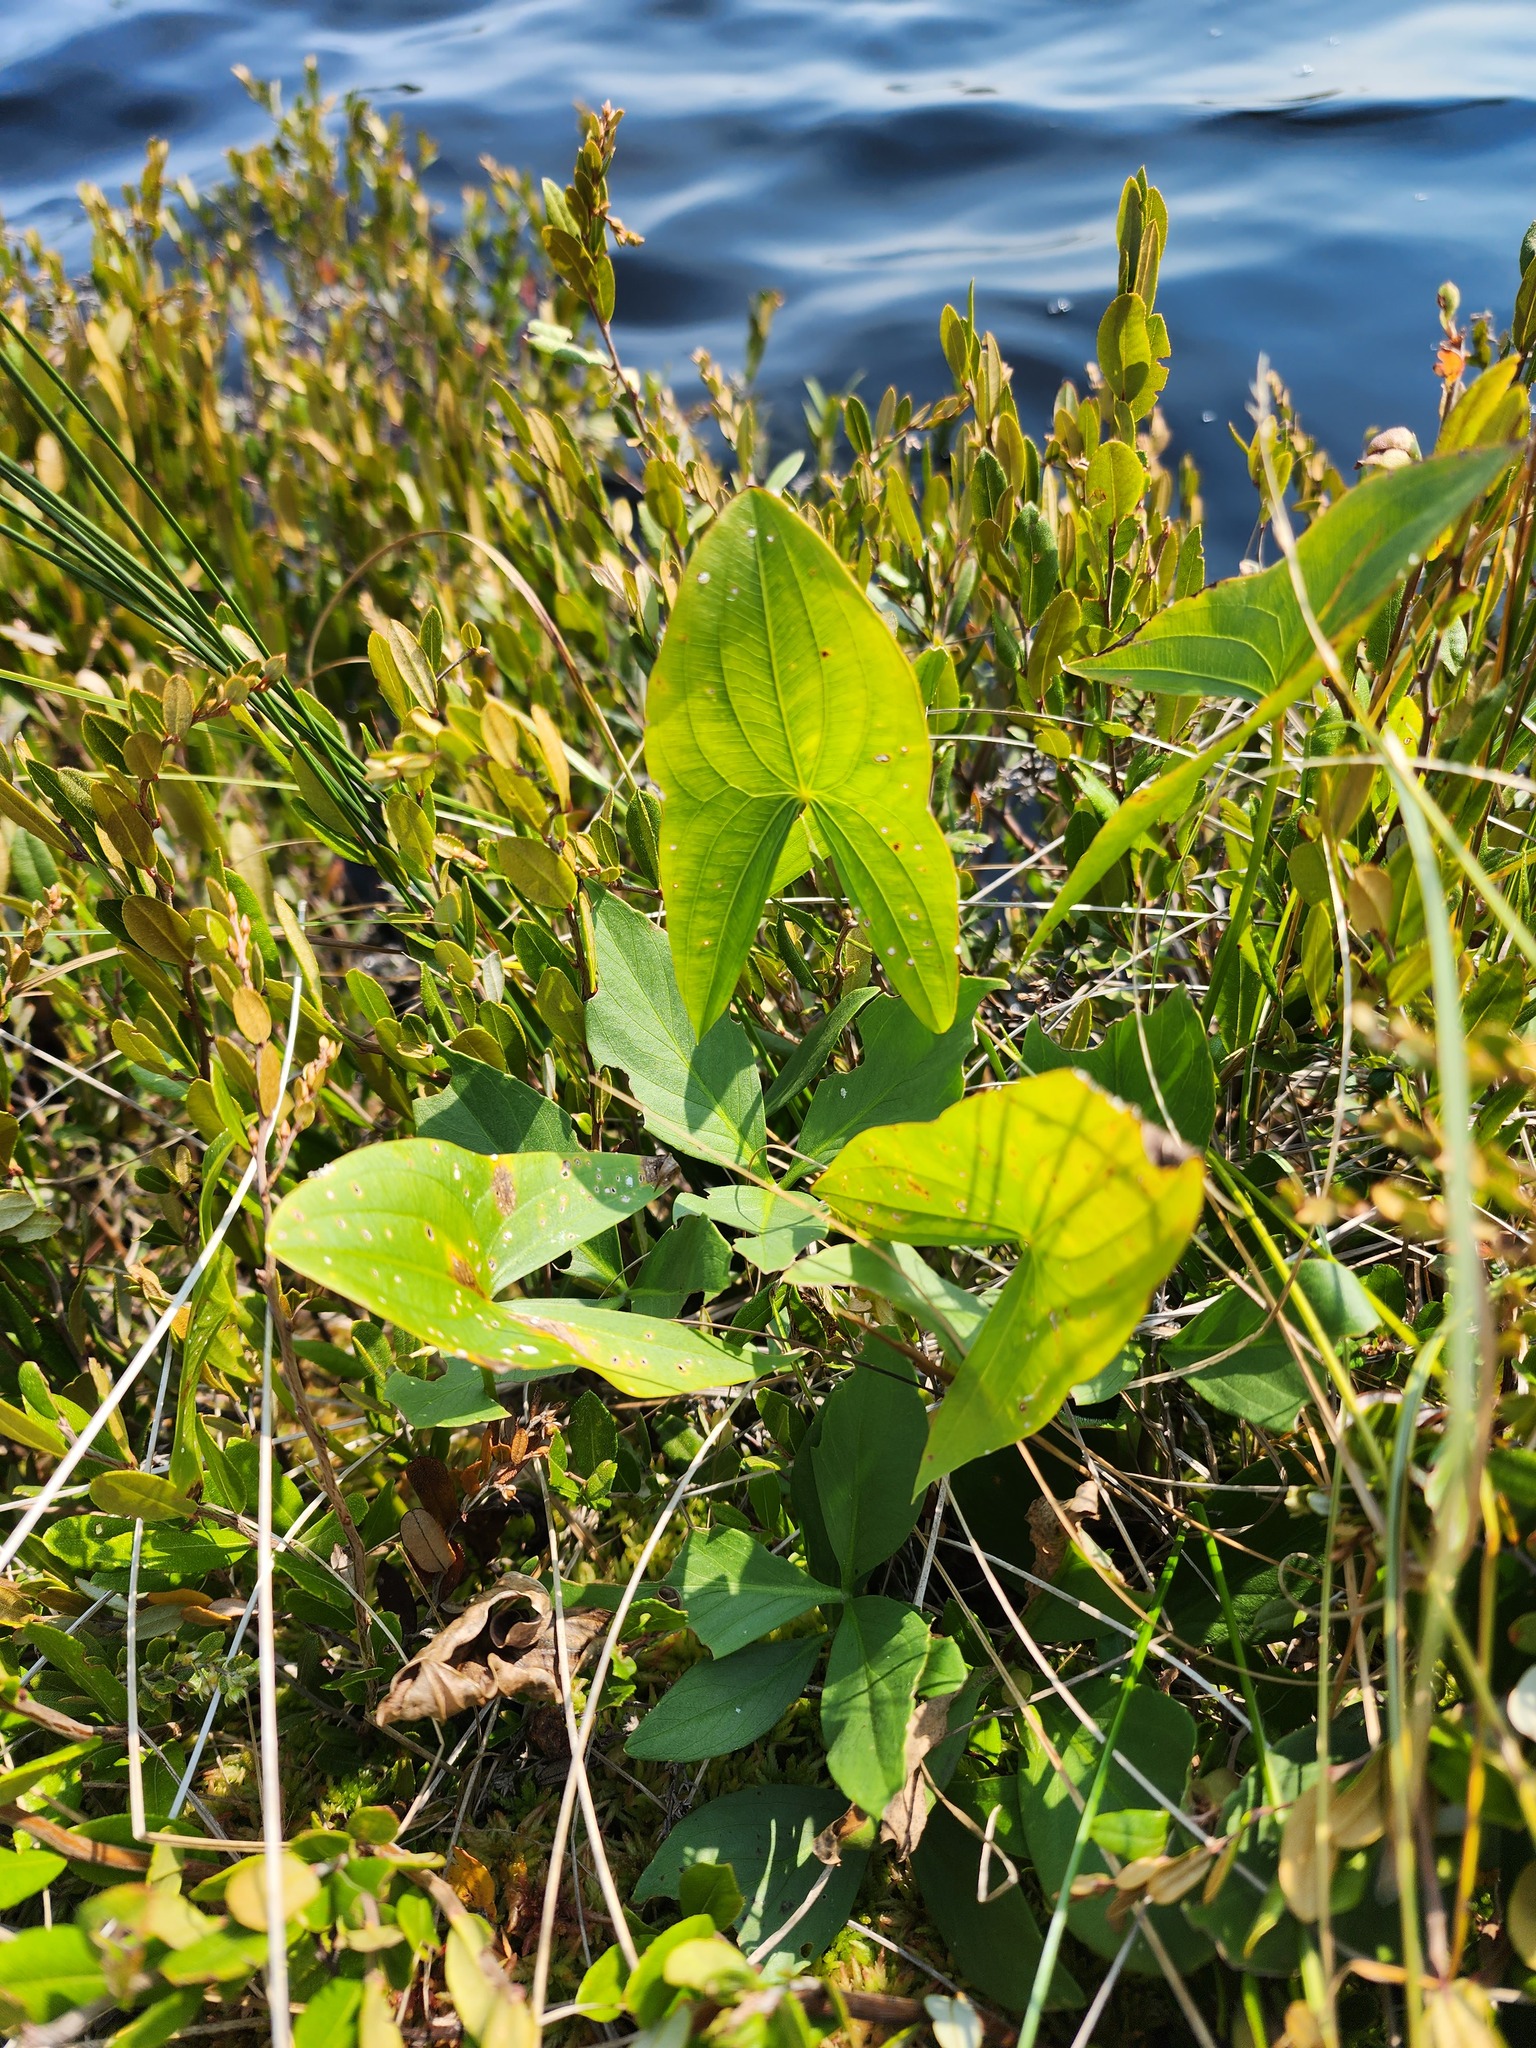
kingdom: Plantae
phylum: Tracheophyta
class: Liliopsida
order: Alismatales
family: Alismataceae
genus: Sagittaria
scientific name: Sagittaria latifolia
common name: Duck-potato
